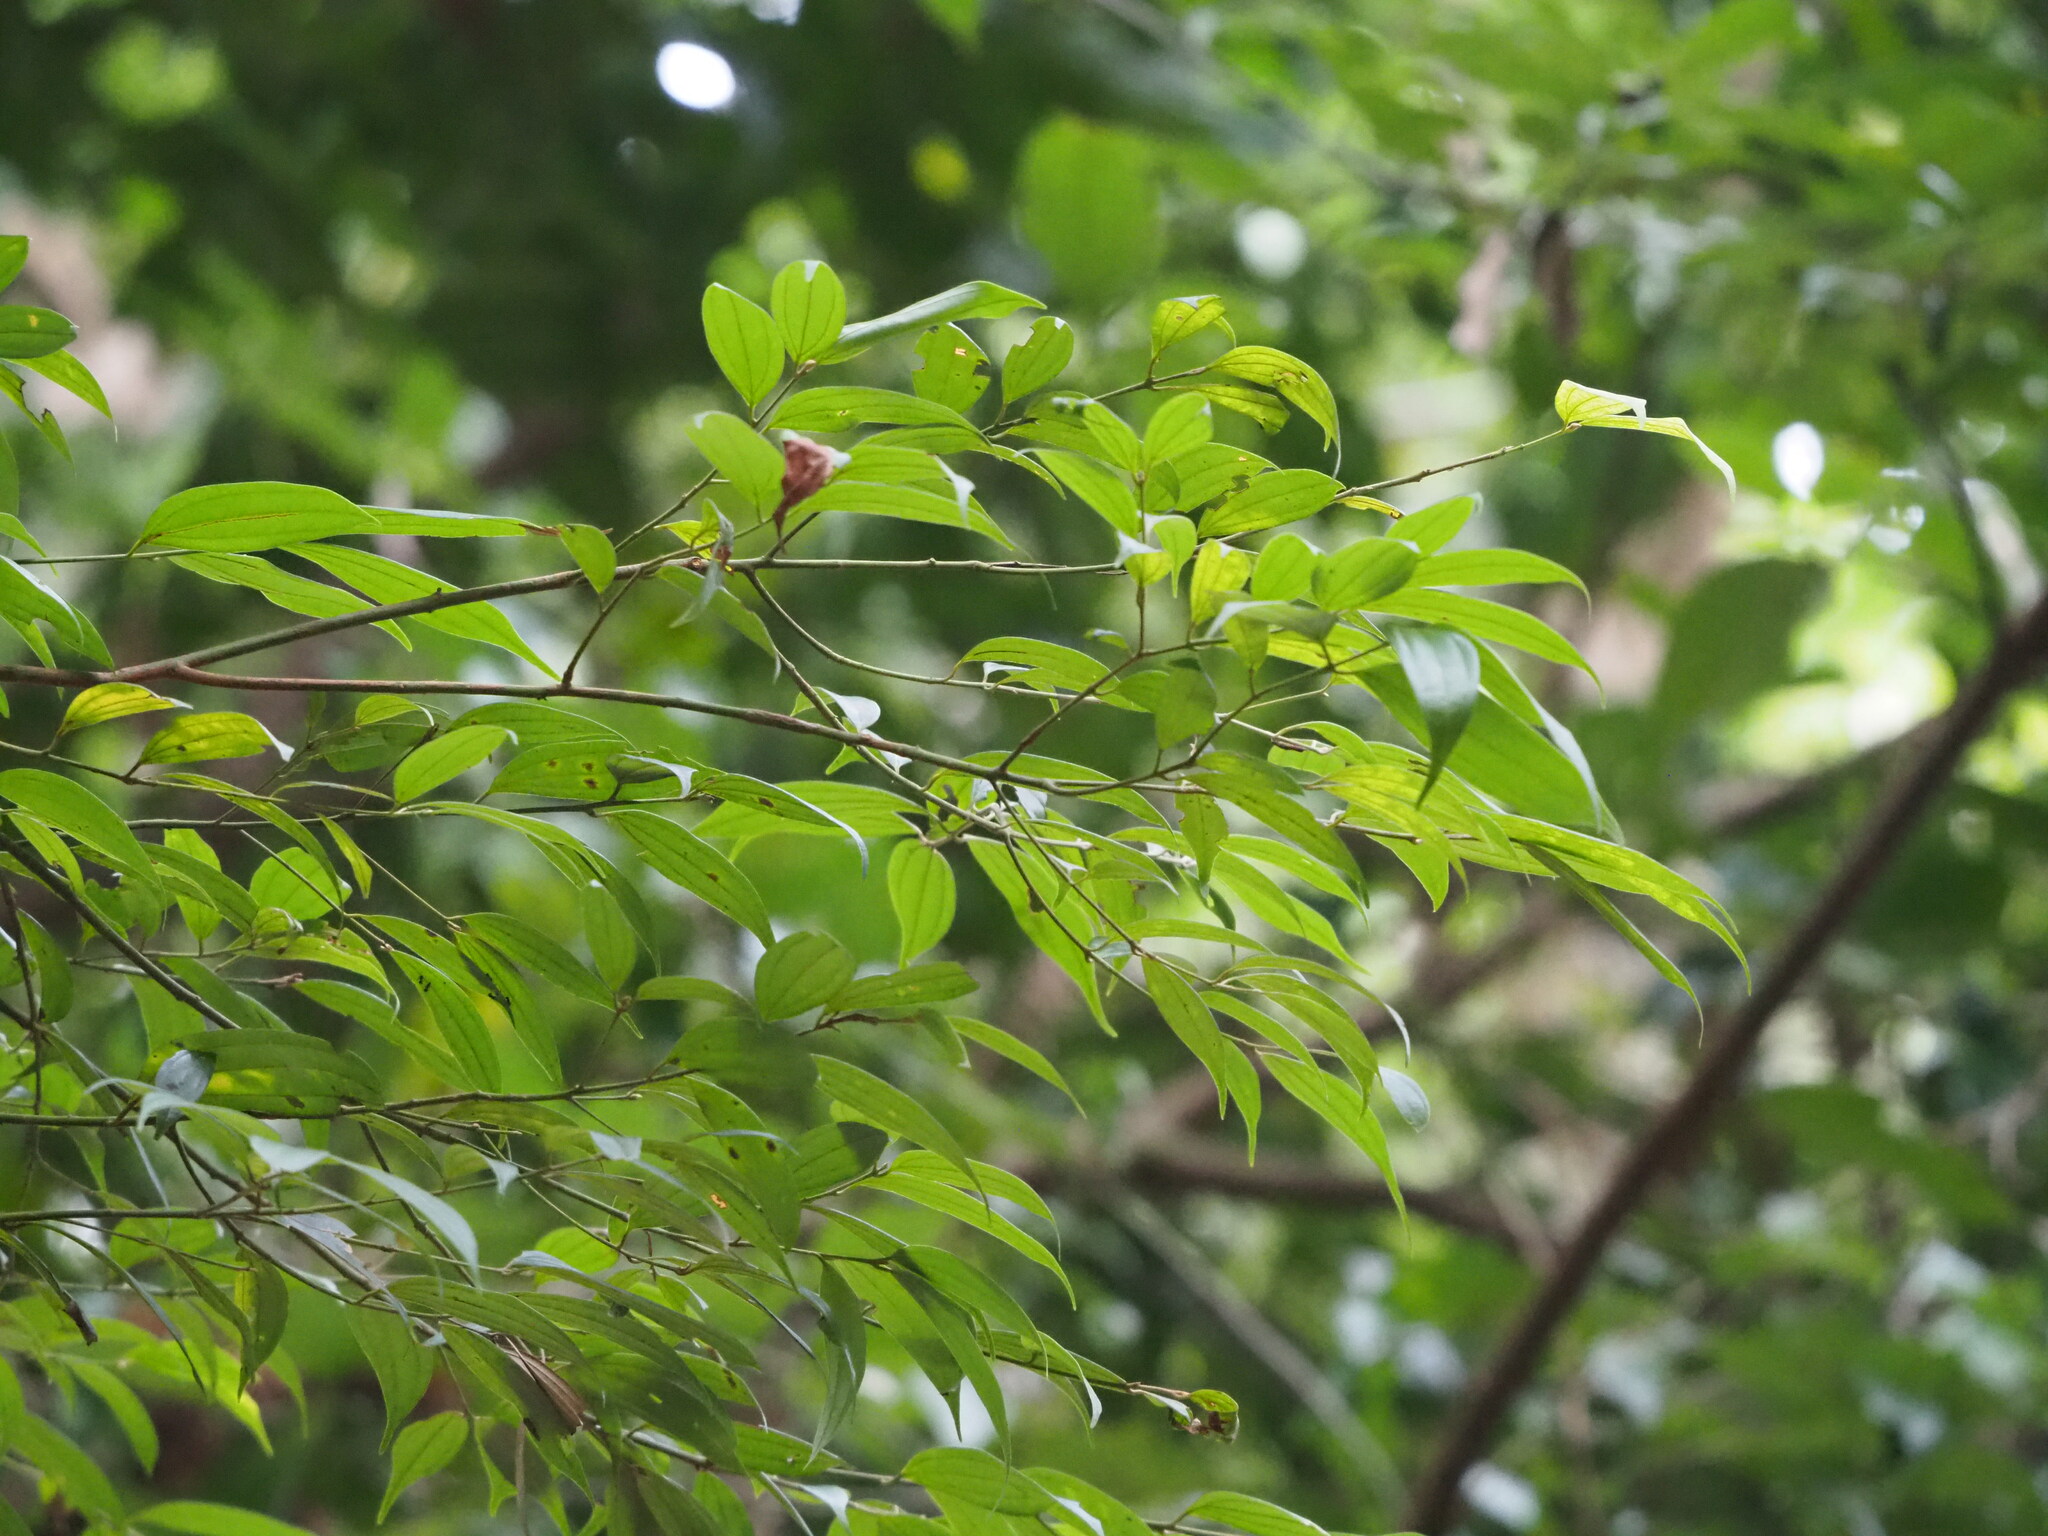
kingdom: Plantae
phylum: Tracheophyta
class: Magnoliopsida
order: Laurales
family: Lauraceae
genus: Cinnamomum
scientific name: Cinnamomum subavenium
